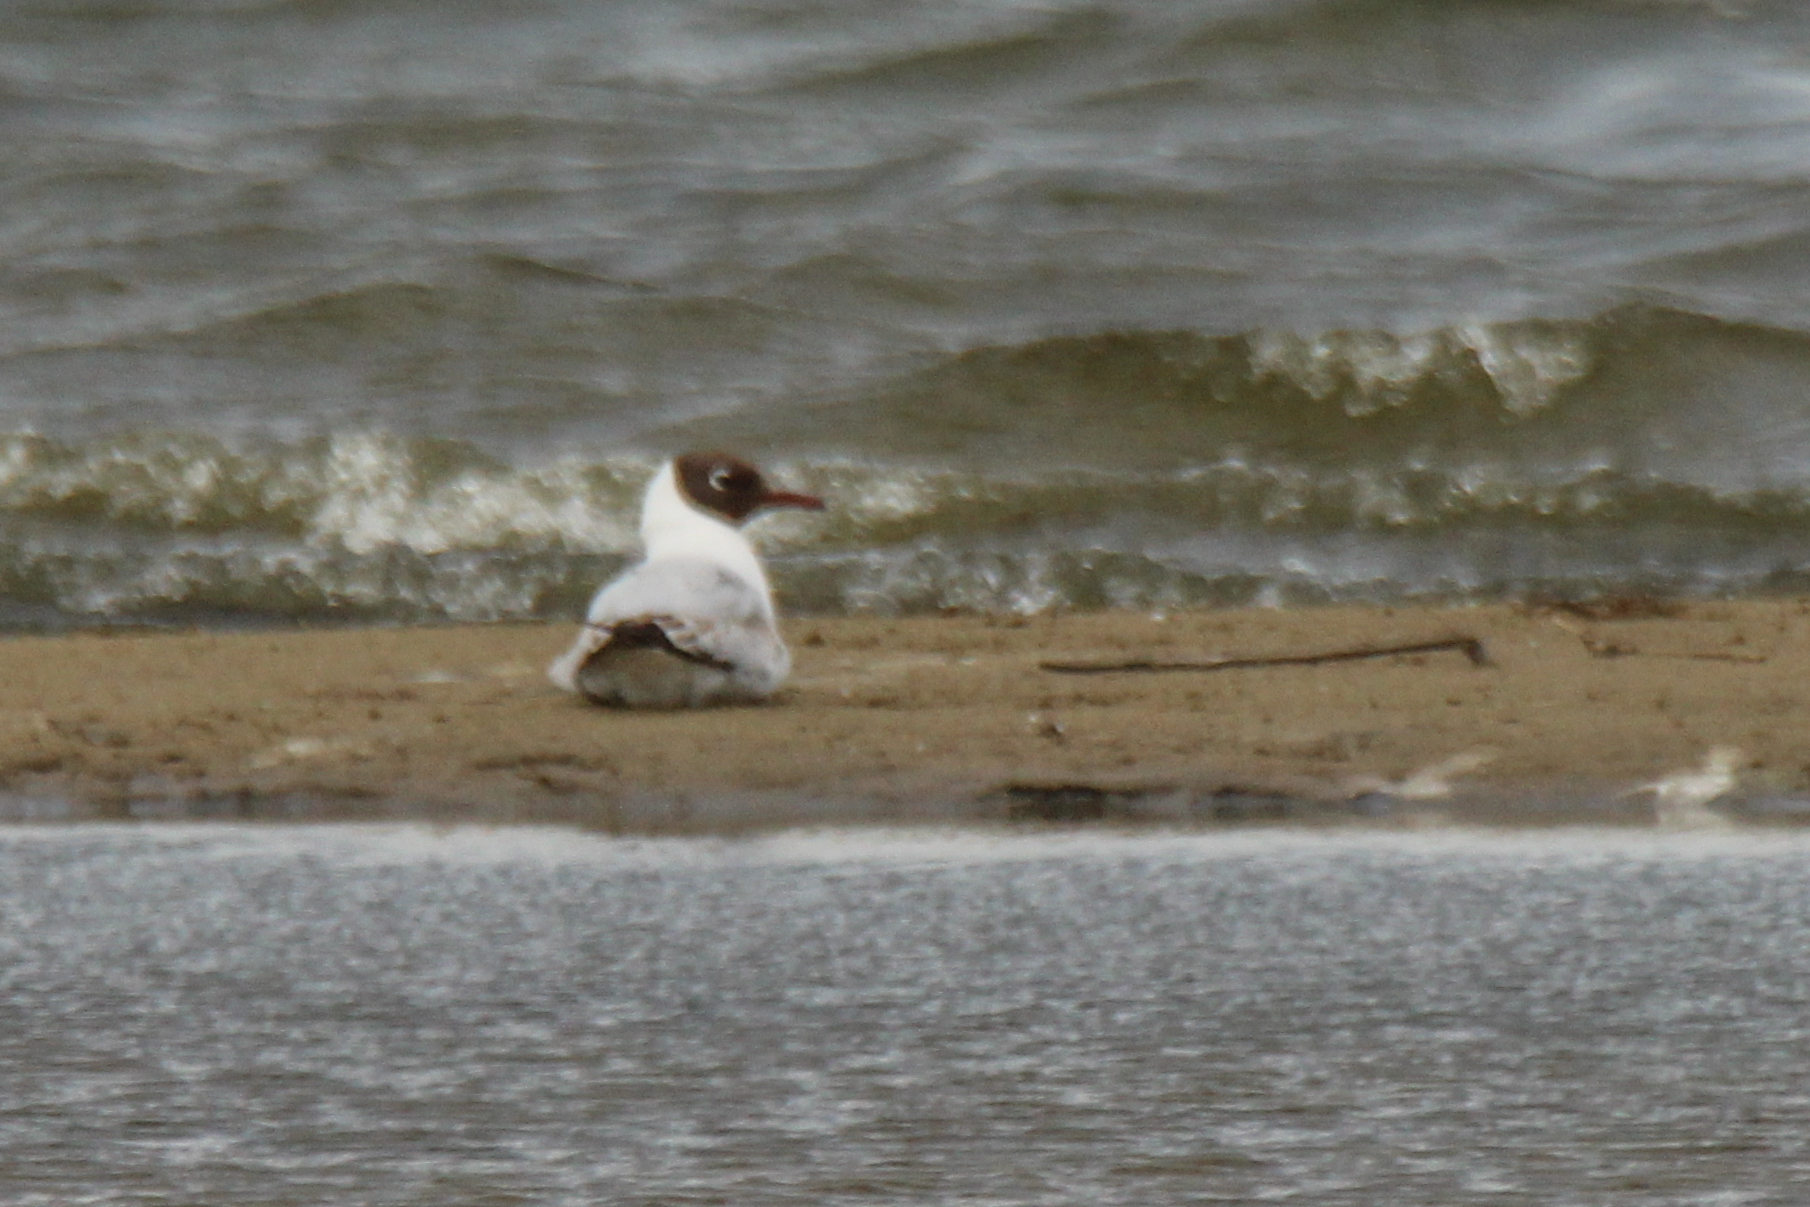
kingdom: Animalia
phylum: Chordata
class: Aves
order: Charadriiformes
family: Laridae
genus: Chroicocephalus
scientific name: Chroicocephalus ridibundus
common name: Black-headed gull
